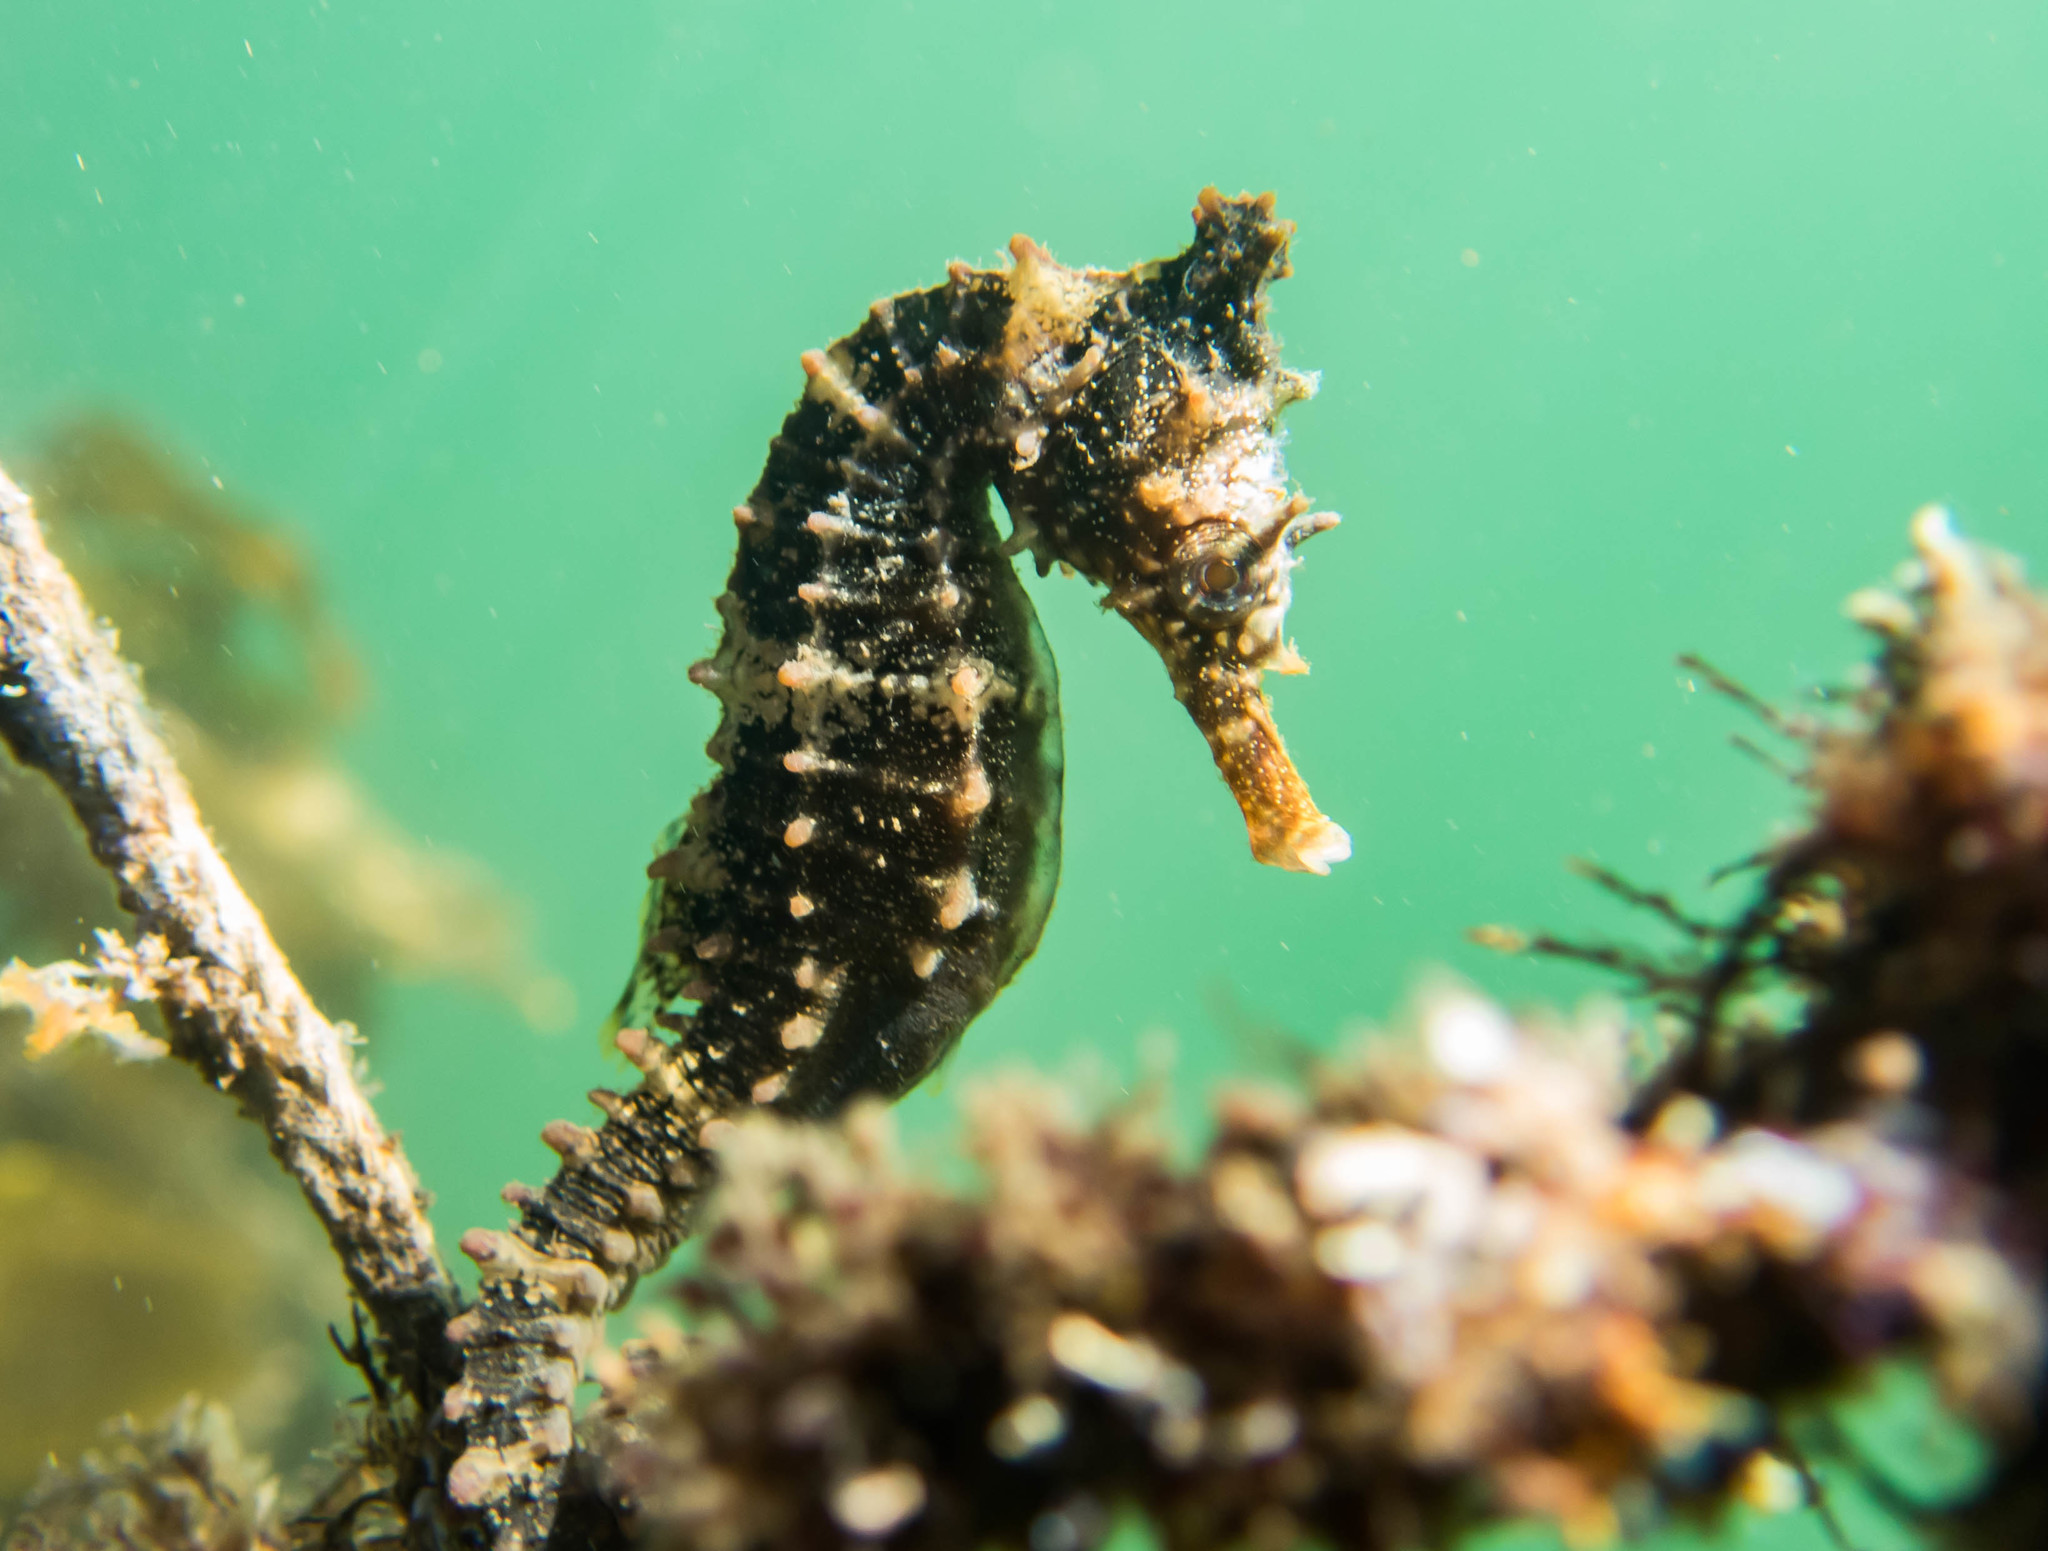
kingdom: Animalia
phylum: Chordata
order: Syngnathiformes
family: Syngnathidae
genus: Hippocampus
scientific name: Hippocampus whitei
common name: New holland seahorse
